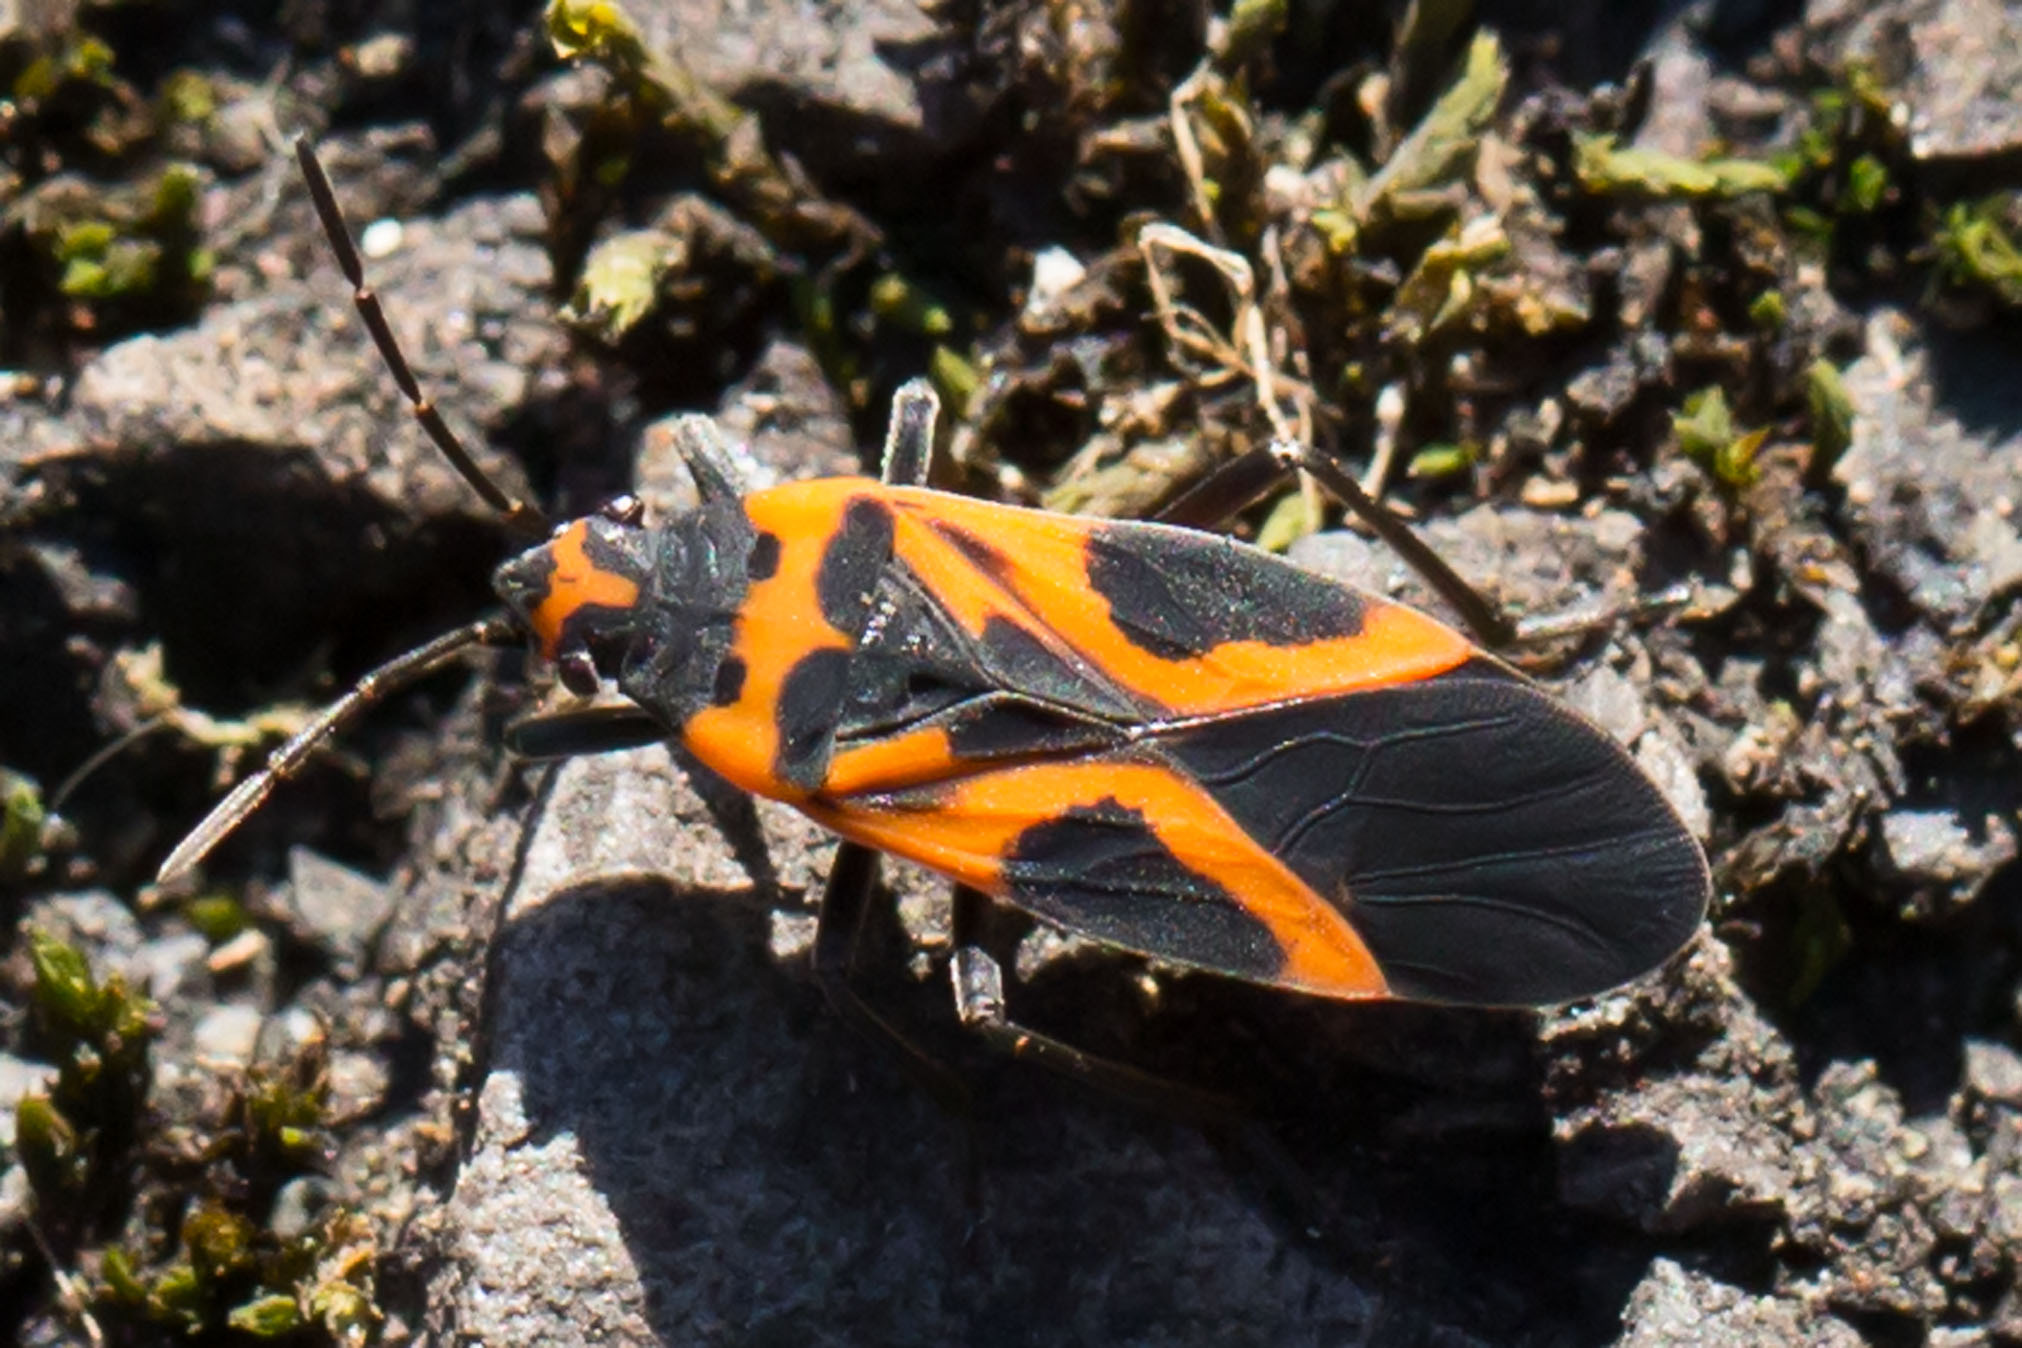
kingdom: Animalia
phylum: Arthropoda
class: Insecta
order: Hemiptera
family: Lygaeidae
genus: Lygaeus
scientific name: Lygaeus turcicus
